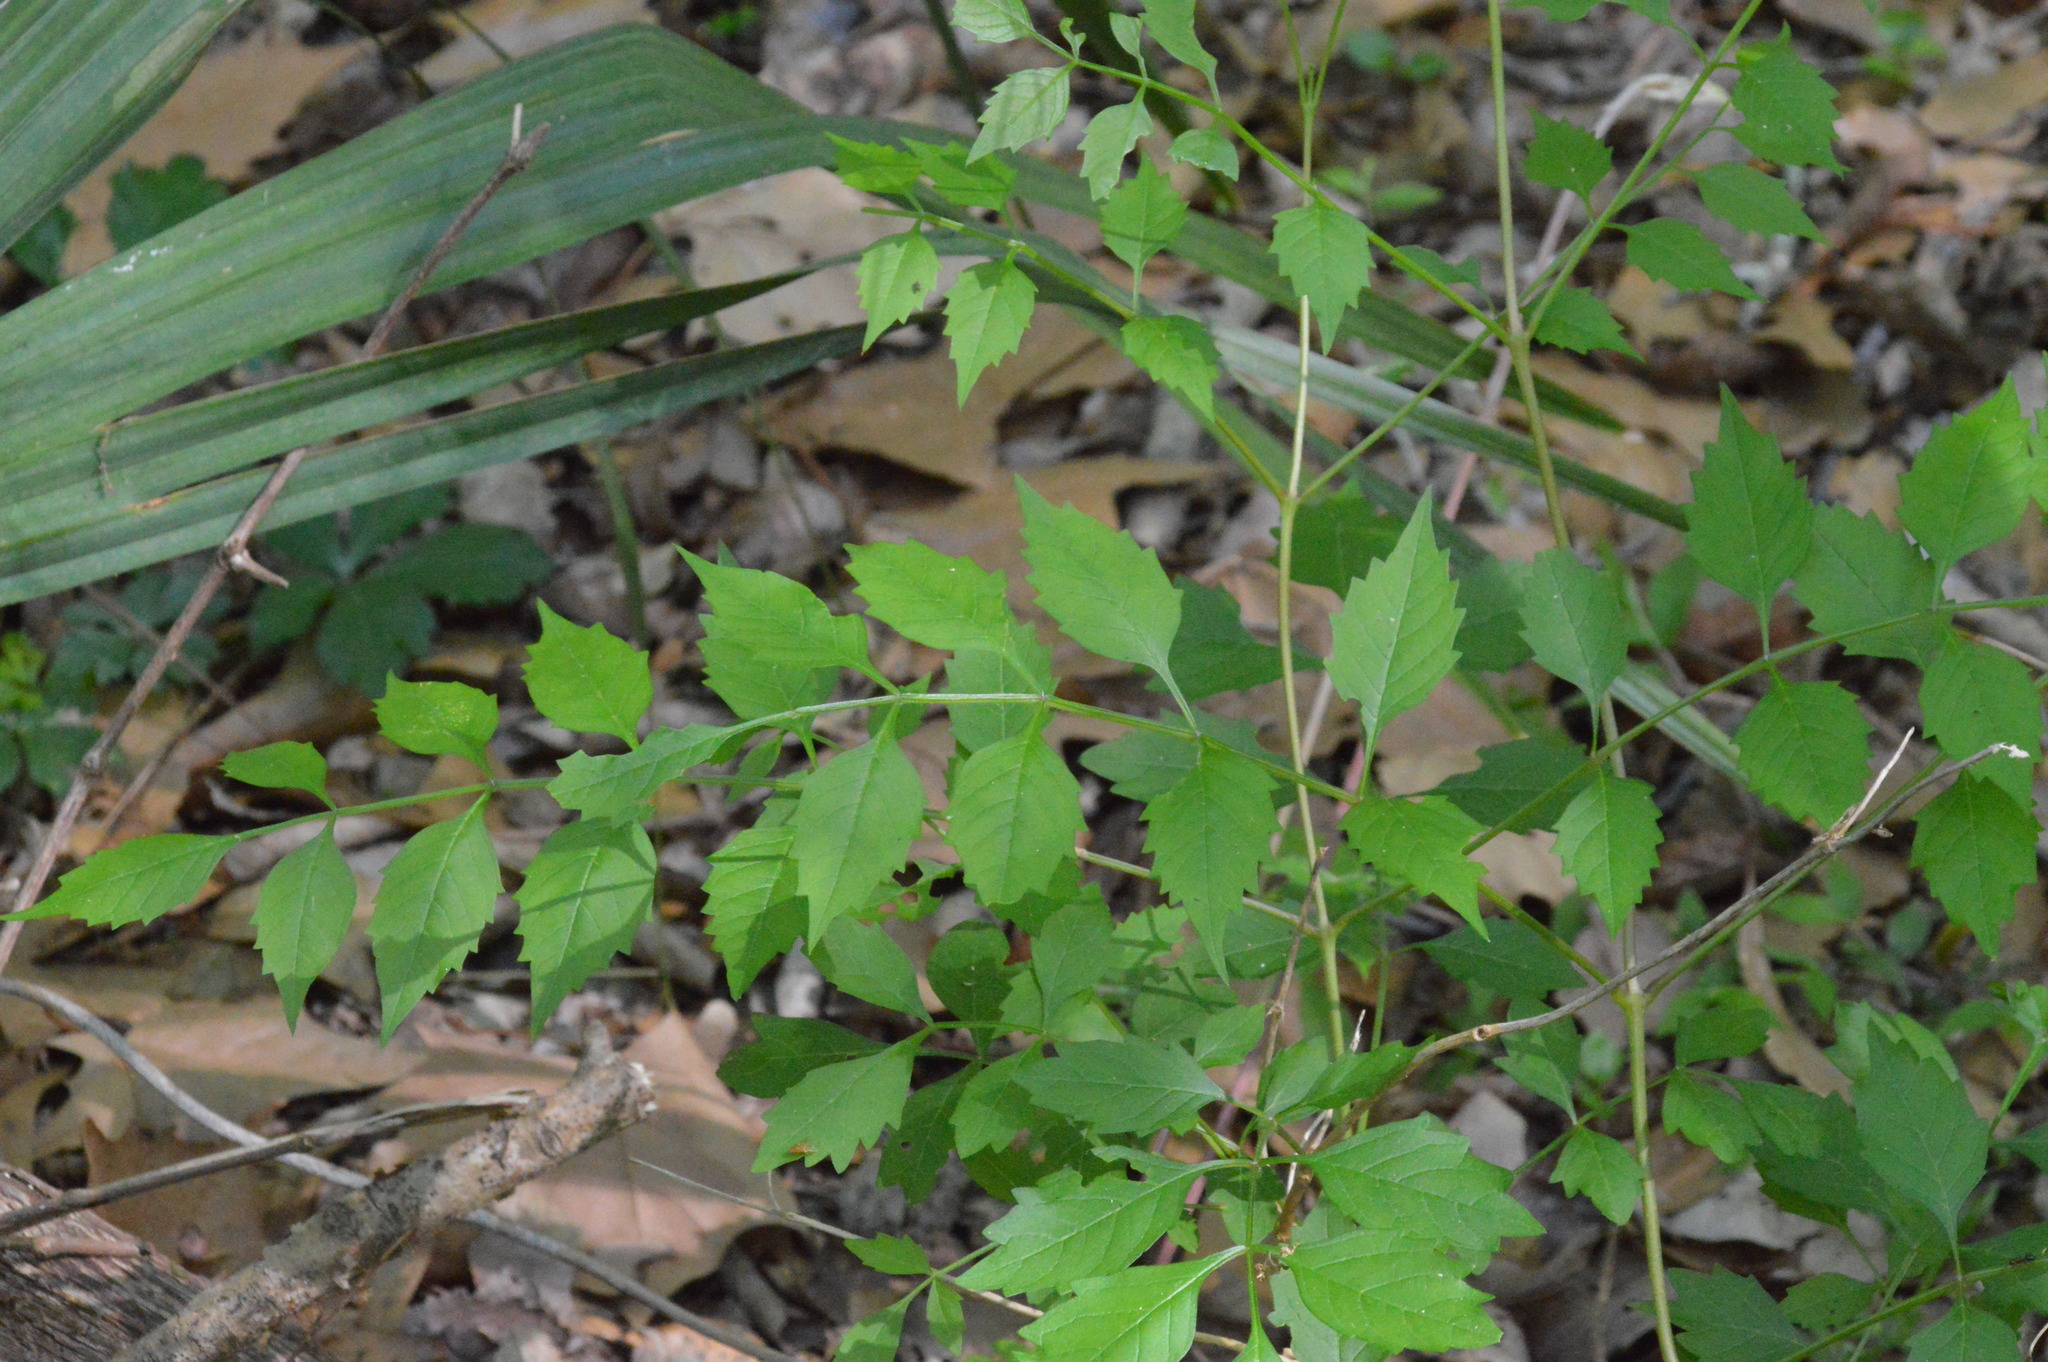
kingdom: Plantae
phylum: Tracheophyta
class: Magnoliopsida
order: Lamiales
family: Bignoniaceae
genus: Campsis
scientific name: Campsis radicans
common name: Trumpet-creeper
